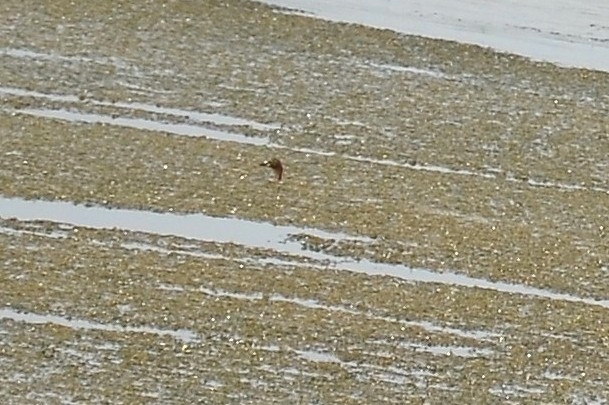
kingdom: Animalia
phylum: Chordata
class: Aves
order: Podicipediformes
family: Podicipedidae
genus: Tachybaptus
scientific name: Tachybaptus ruficollis
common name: Little grebe
